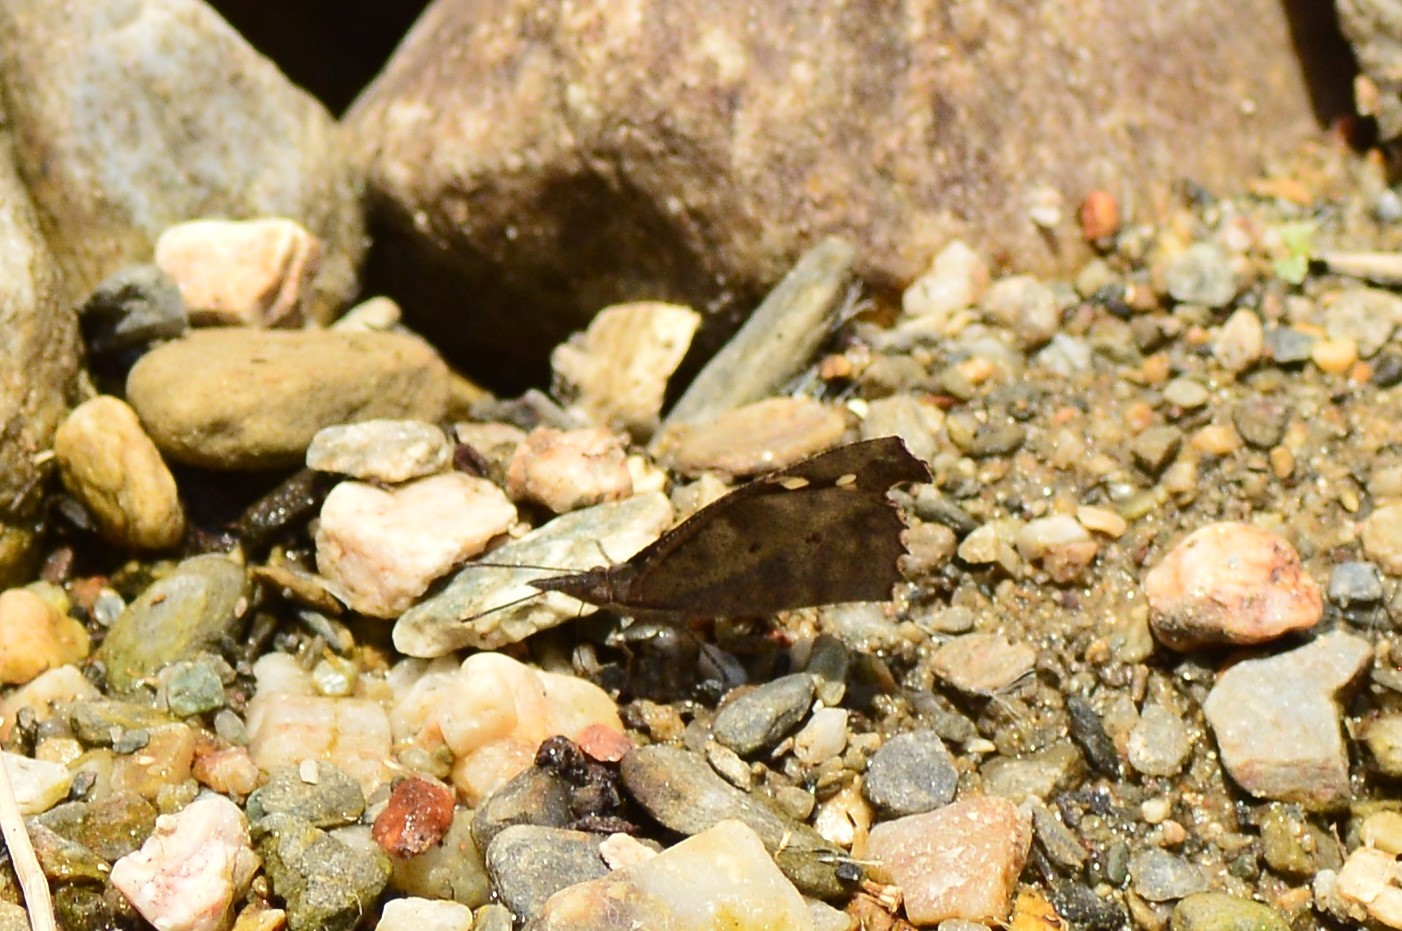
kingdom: Animalia
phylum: Arthropoda
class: Insecta
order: Lepidoptera
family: Nymphalidae
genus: Libythea
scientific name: Libythea lepita
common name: Common beak
